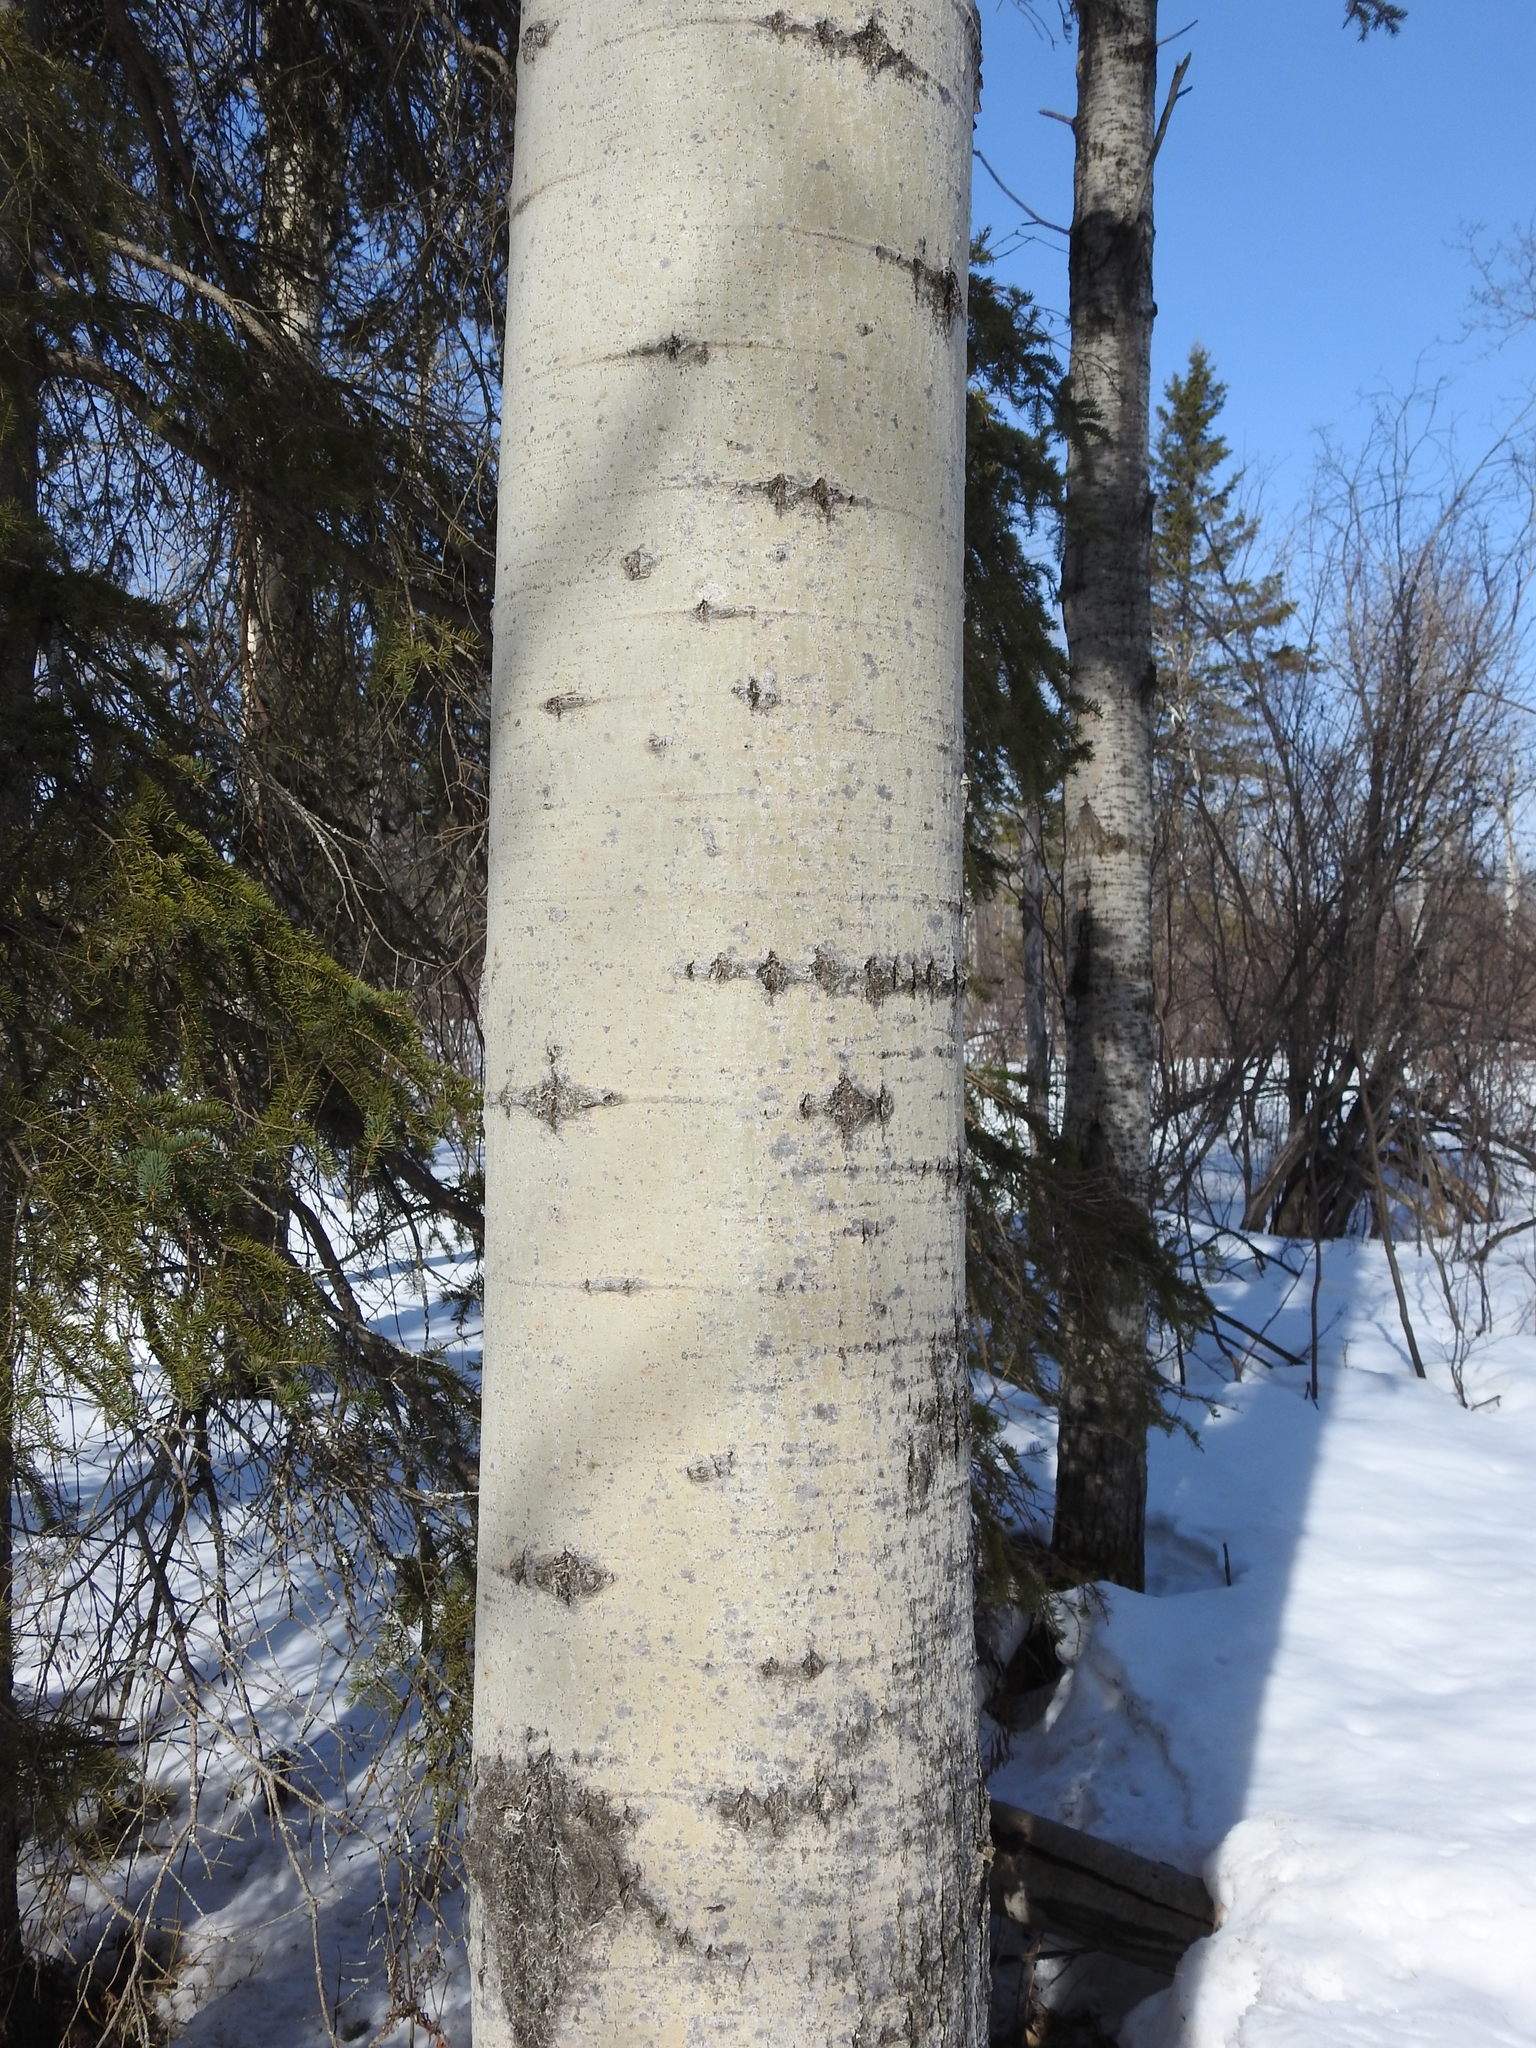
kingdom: Plantae
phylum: Tracheophyta
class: Magnoliopsida
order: Malpighiales
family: Salicaceae
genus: Populus
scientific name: Populus tremuloides
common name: Quaking aspen
